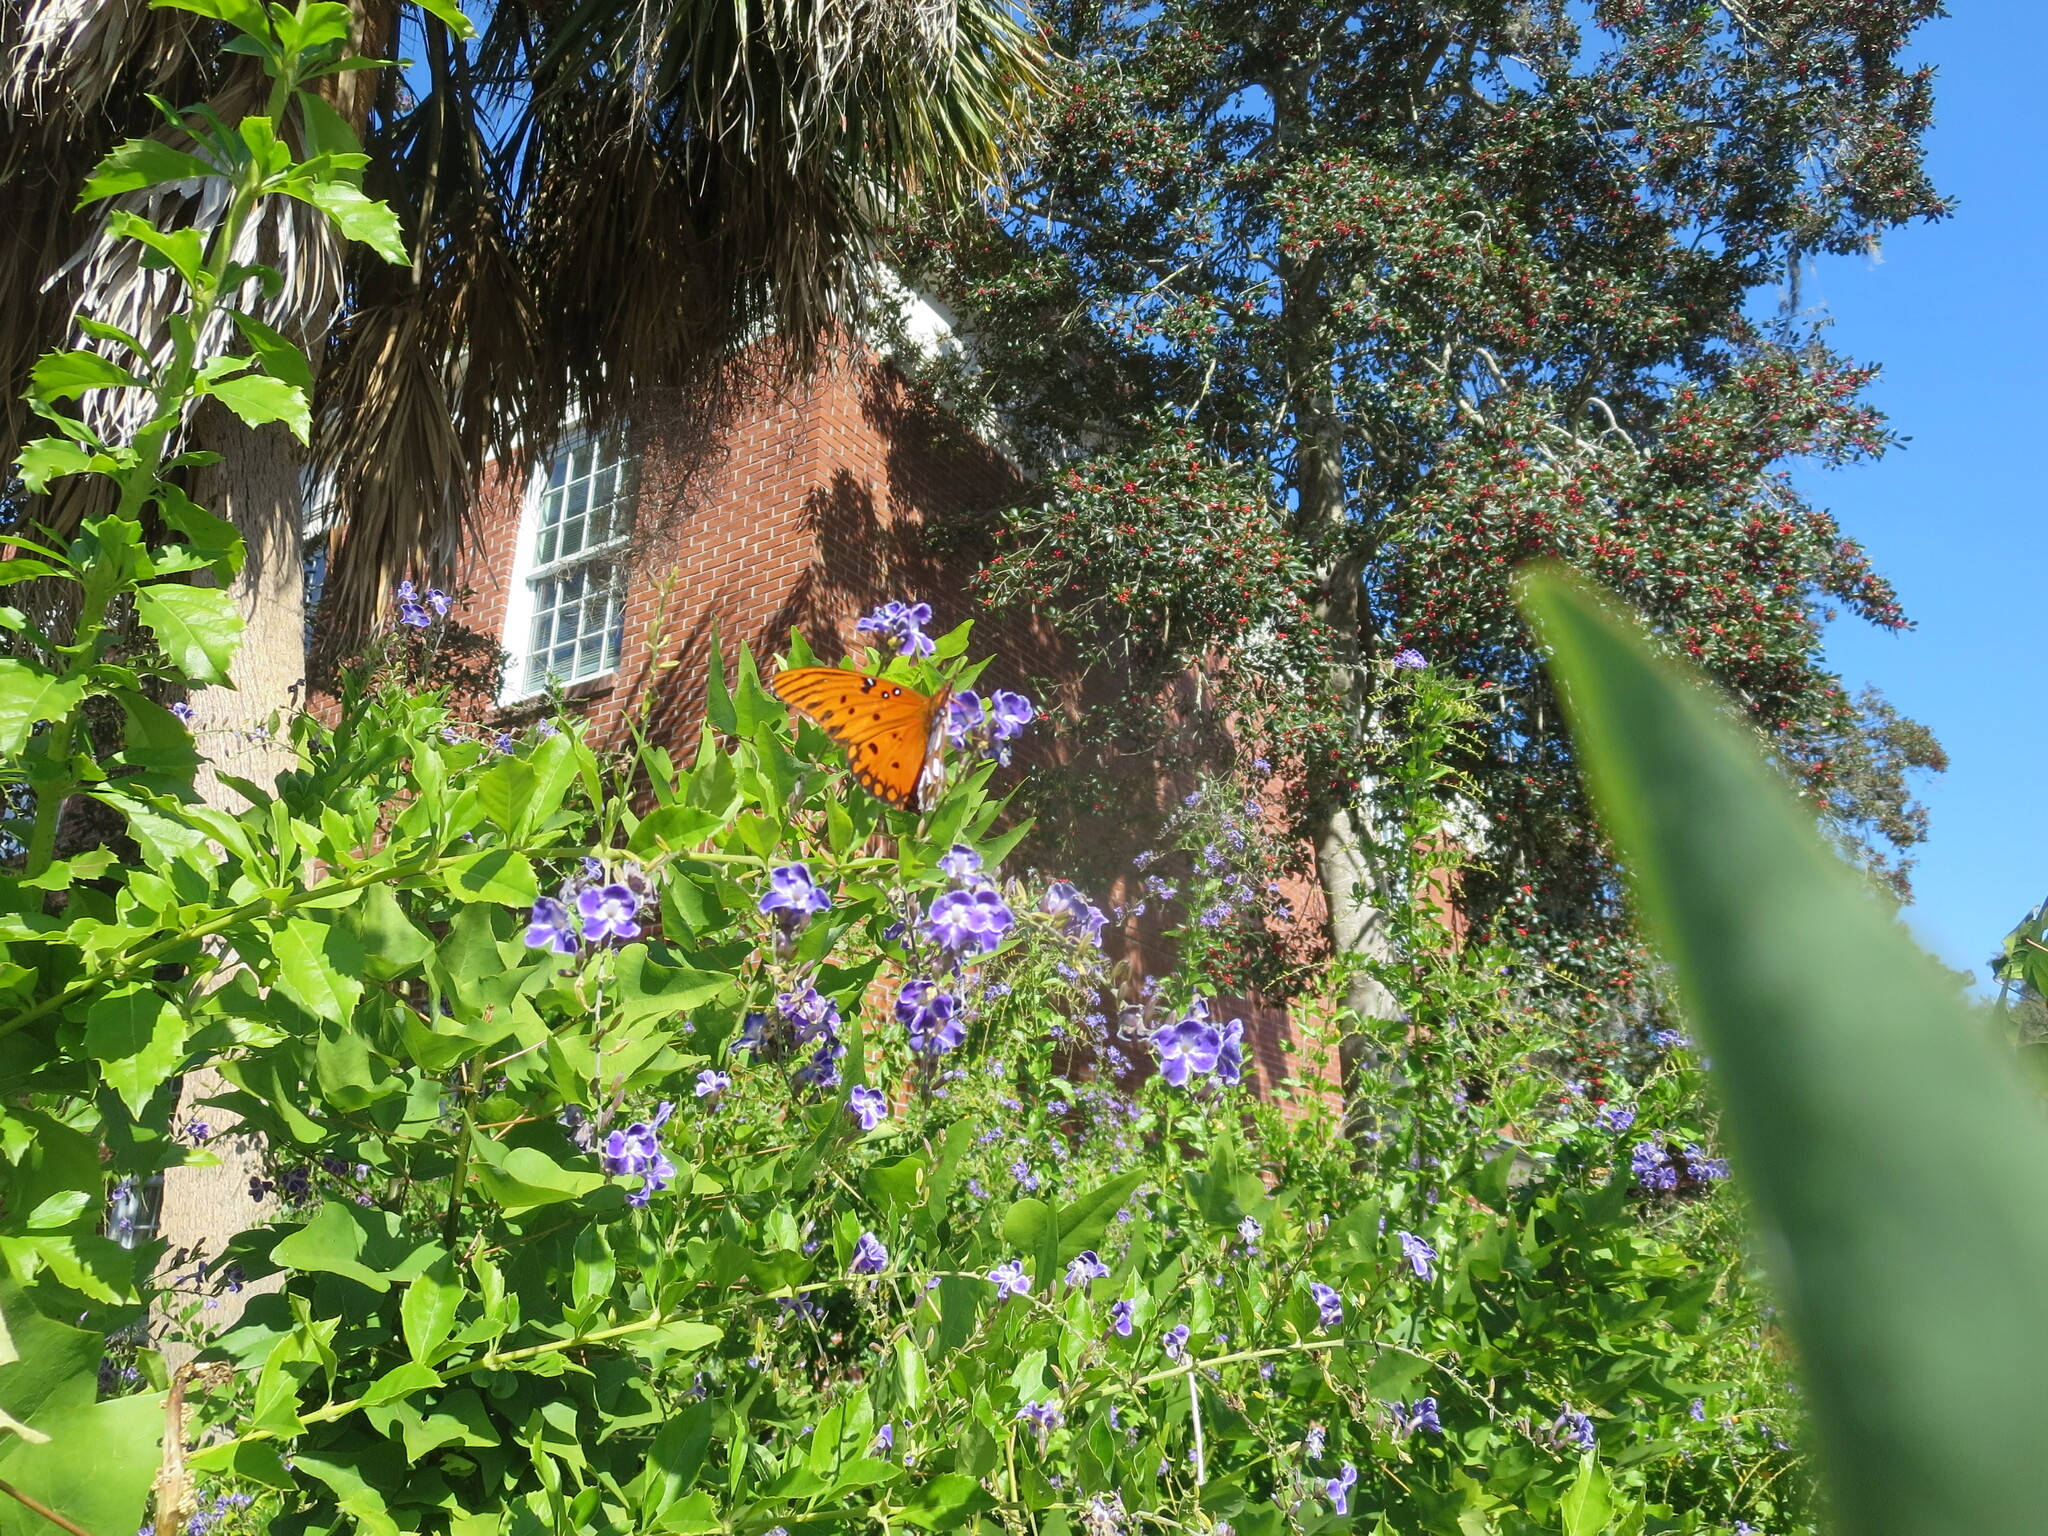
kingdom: Animalia
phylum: Arthropoda
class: Insecta
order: Lepidoptera
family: Nymphalidae
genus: Dione
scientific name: Dione vanillae
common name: Gulf fritillary
